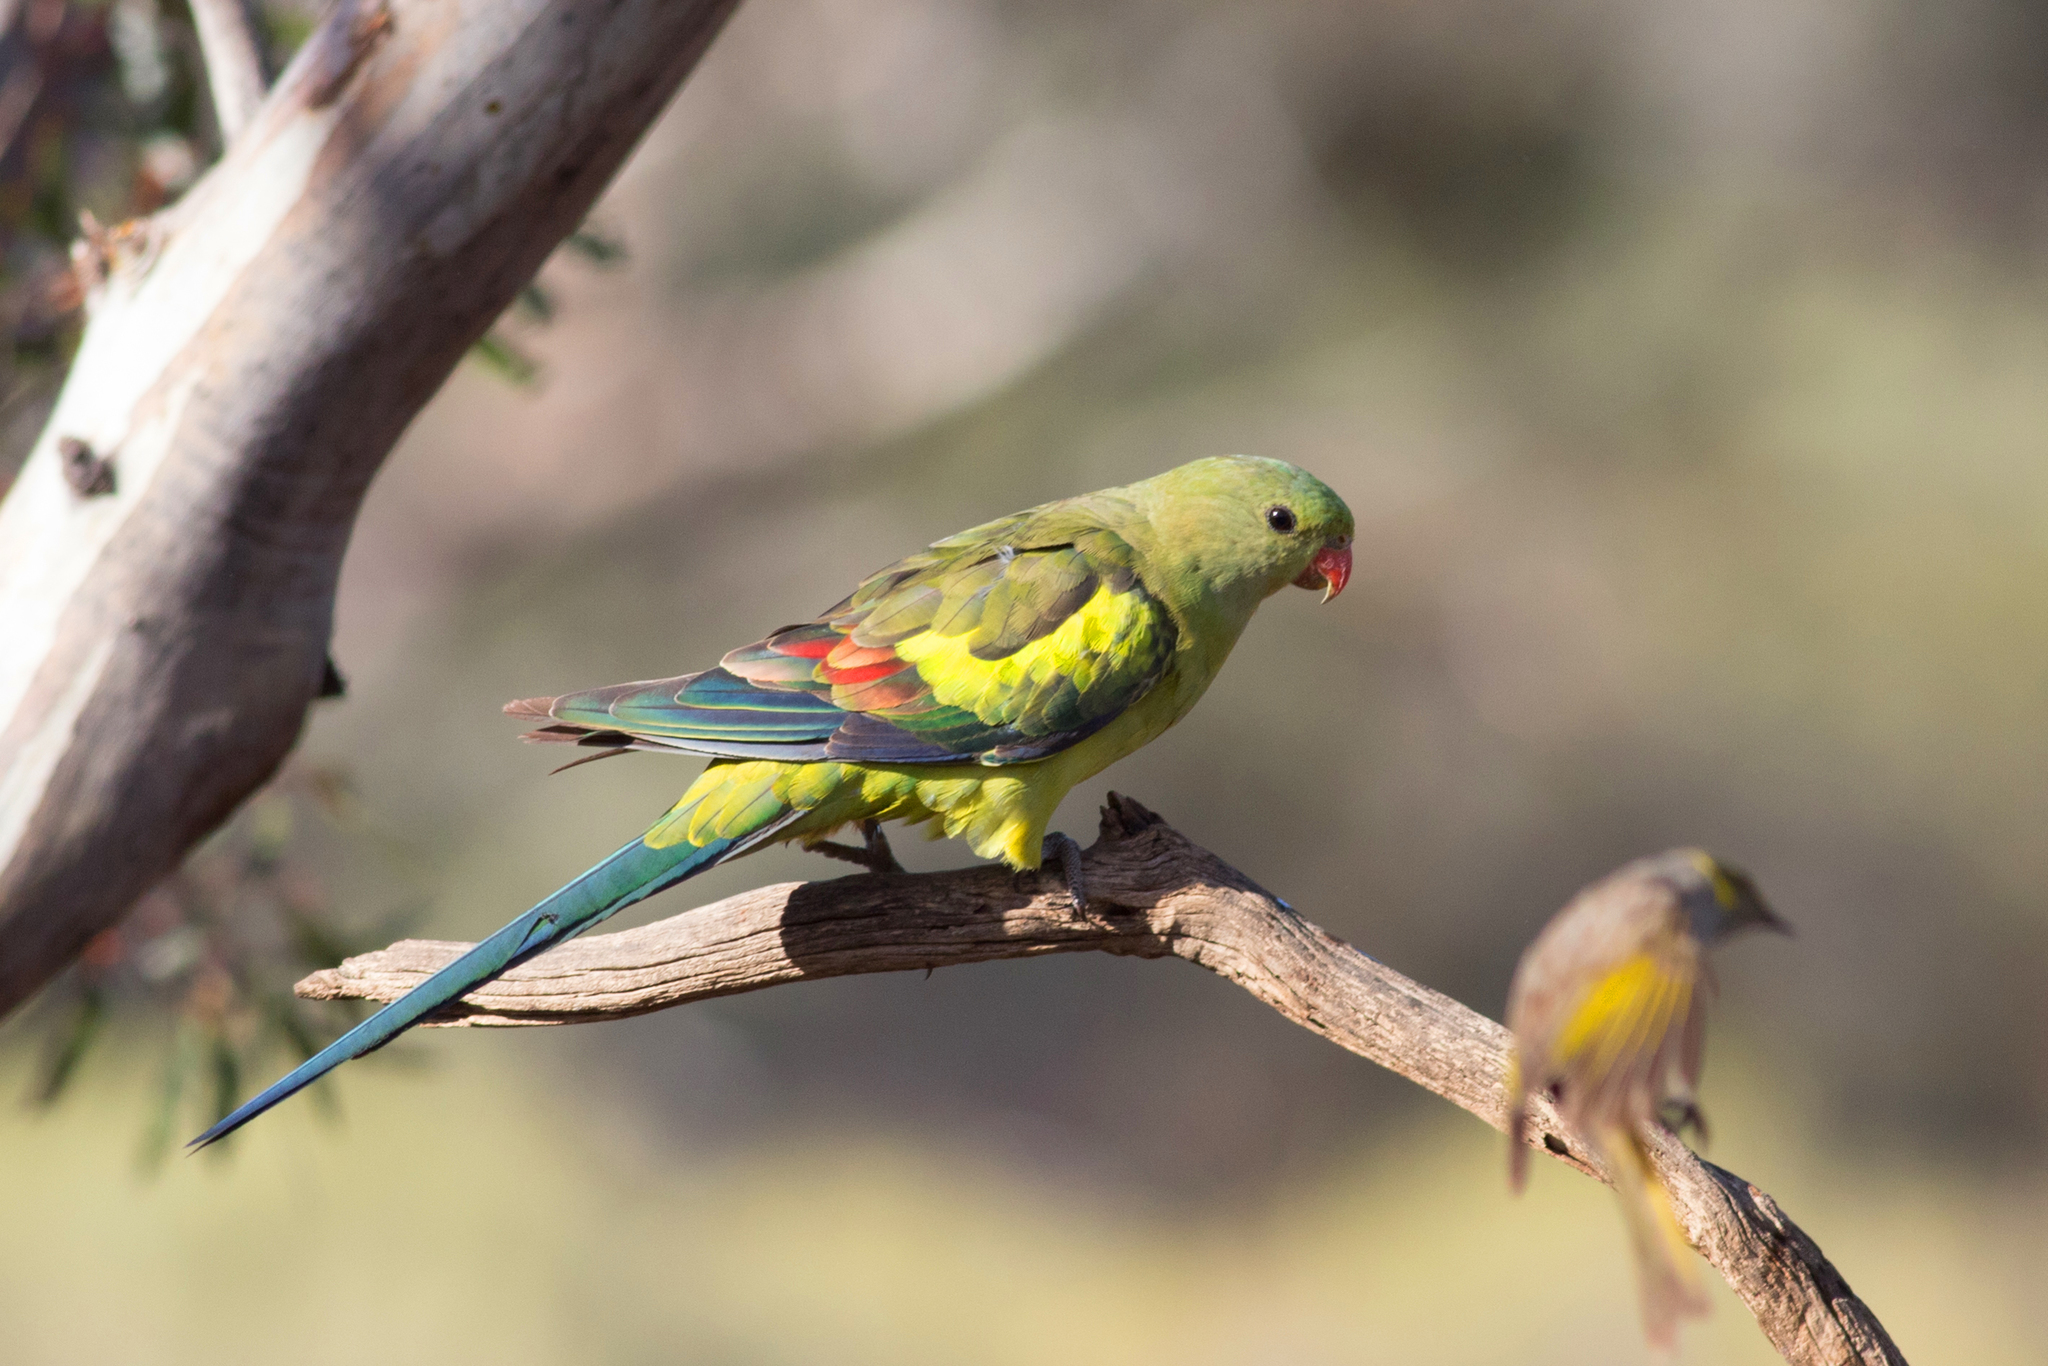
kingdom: Animalia
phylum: Chordata
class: Aves
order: Psittaciformes
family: Psittacidae
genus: Polytelis
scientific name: Polytelis anthopeplus
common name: Regent parrot
